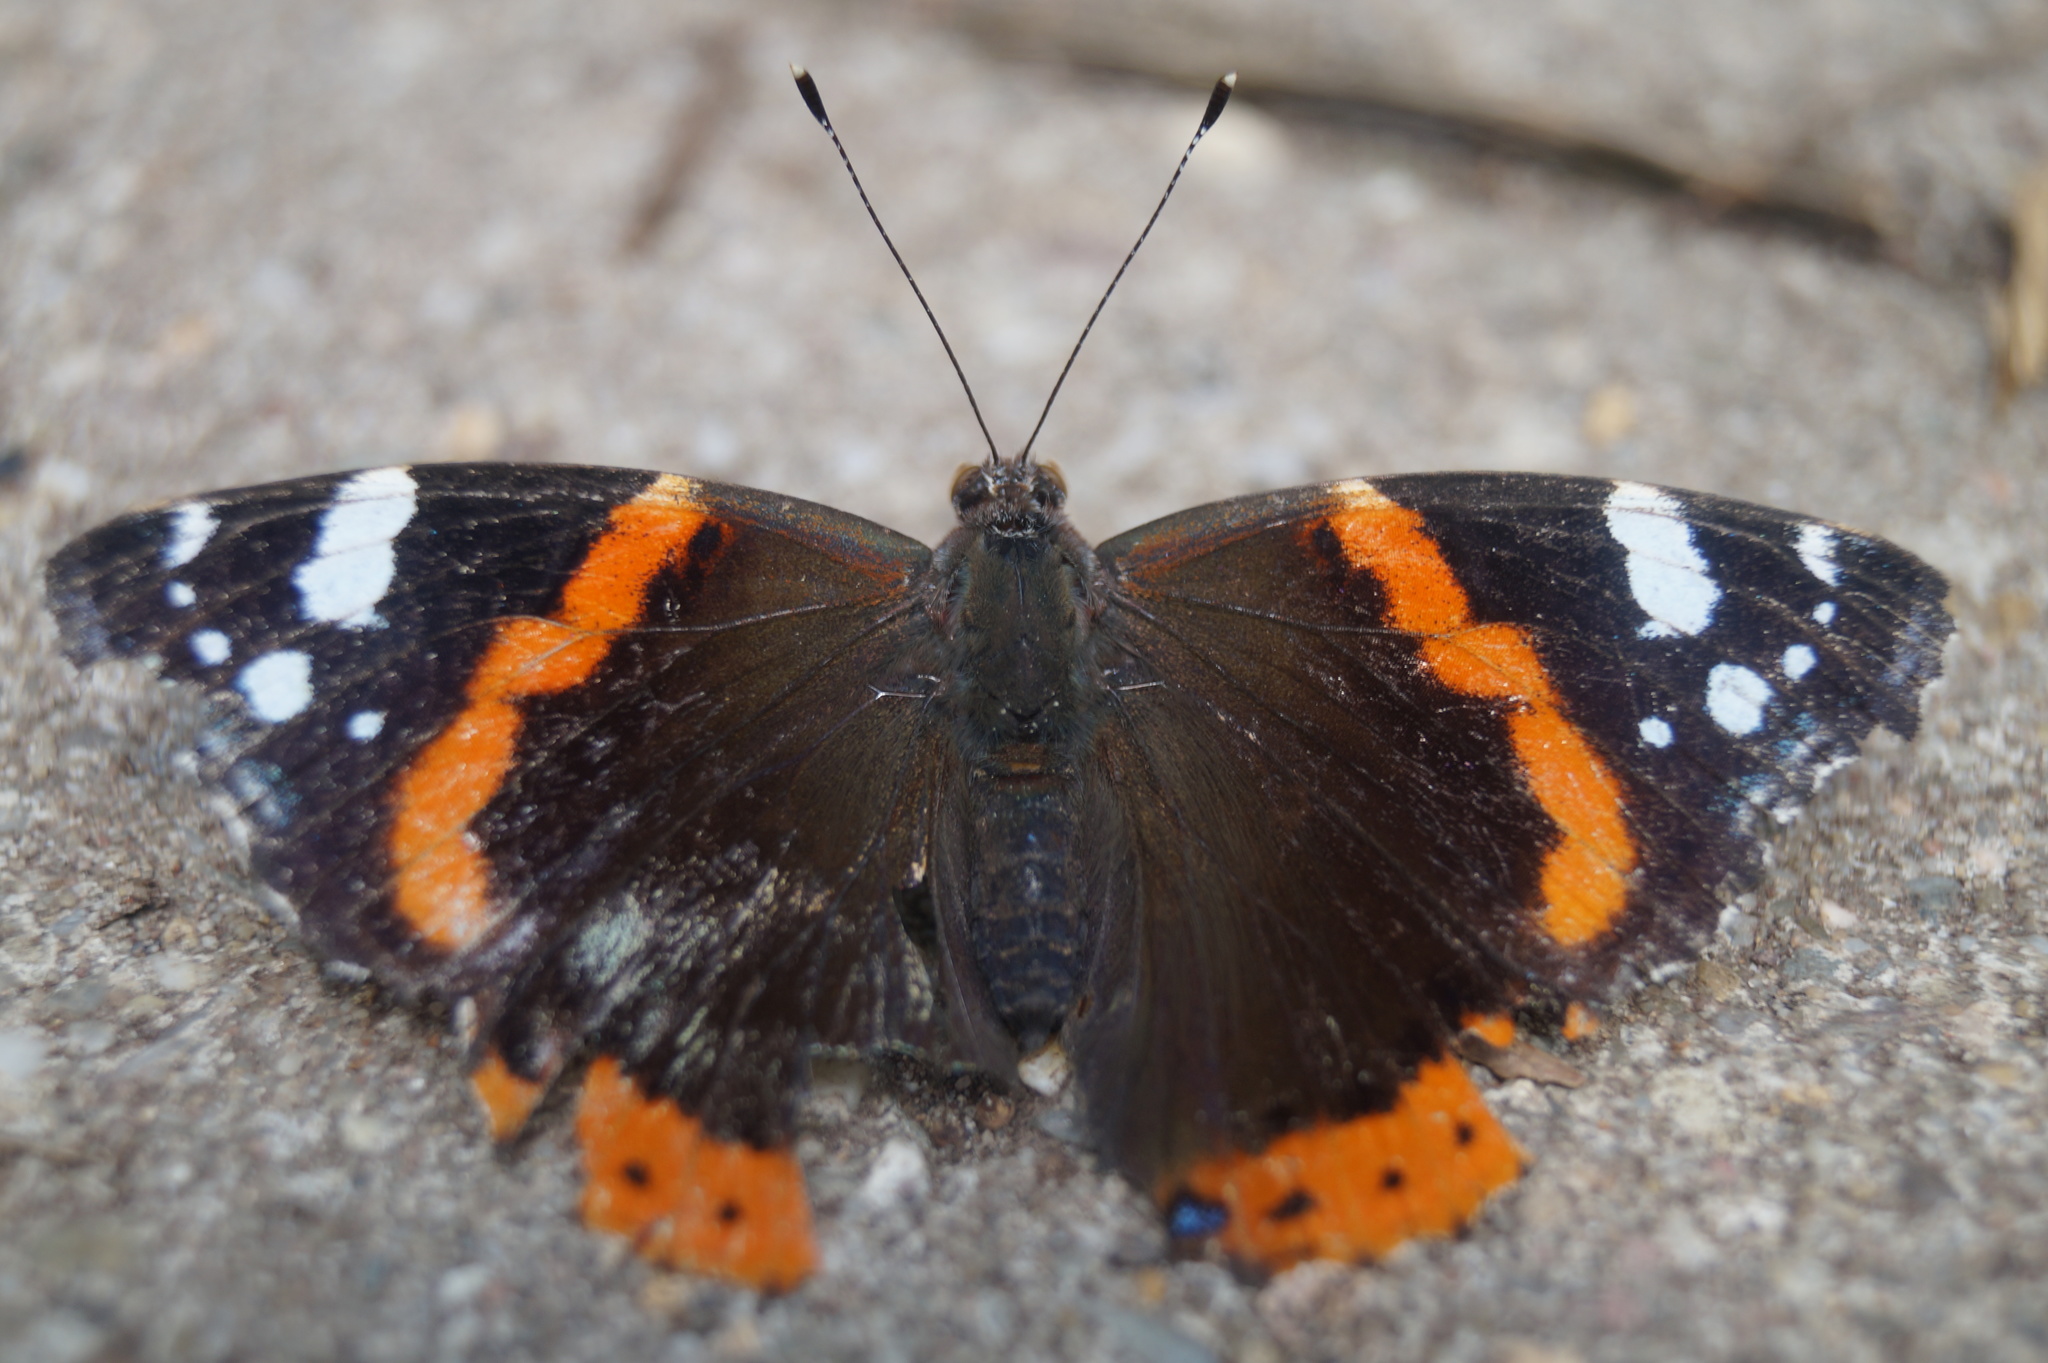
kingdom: Animalia
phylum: Arthropoda
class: Insecta
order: Lepidoptera
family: Nymphalidae
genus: Vanessa
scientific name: Vanessa atalanta
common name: Red admiral
